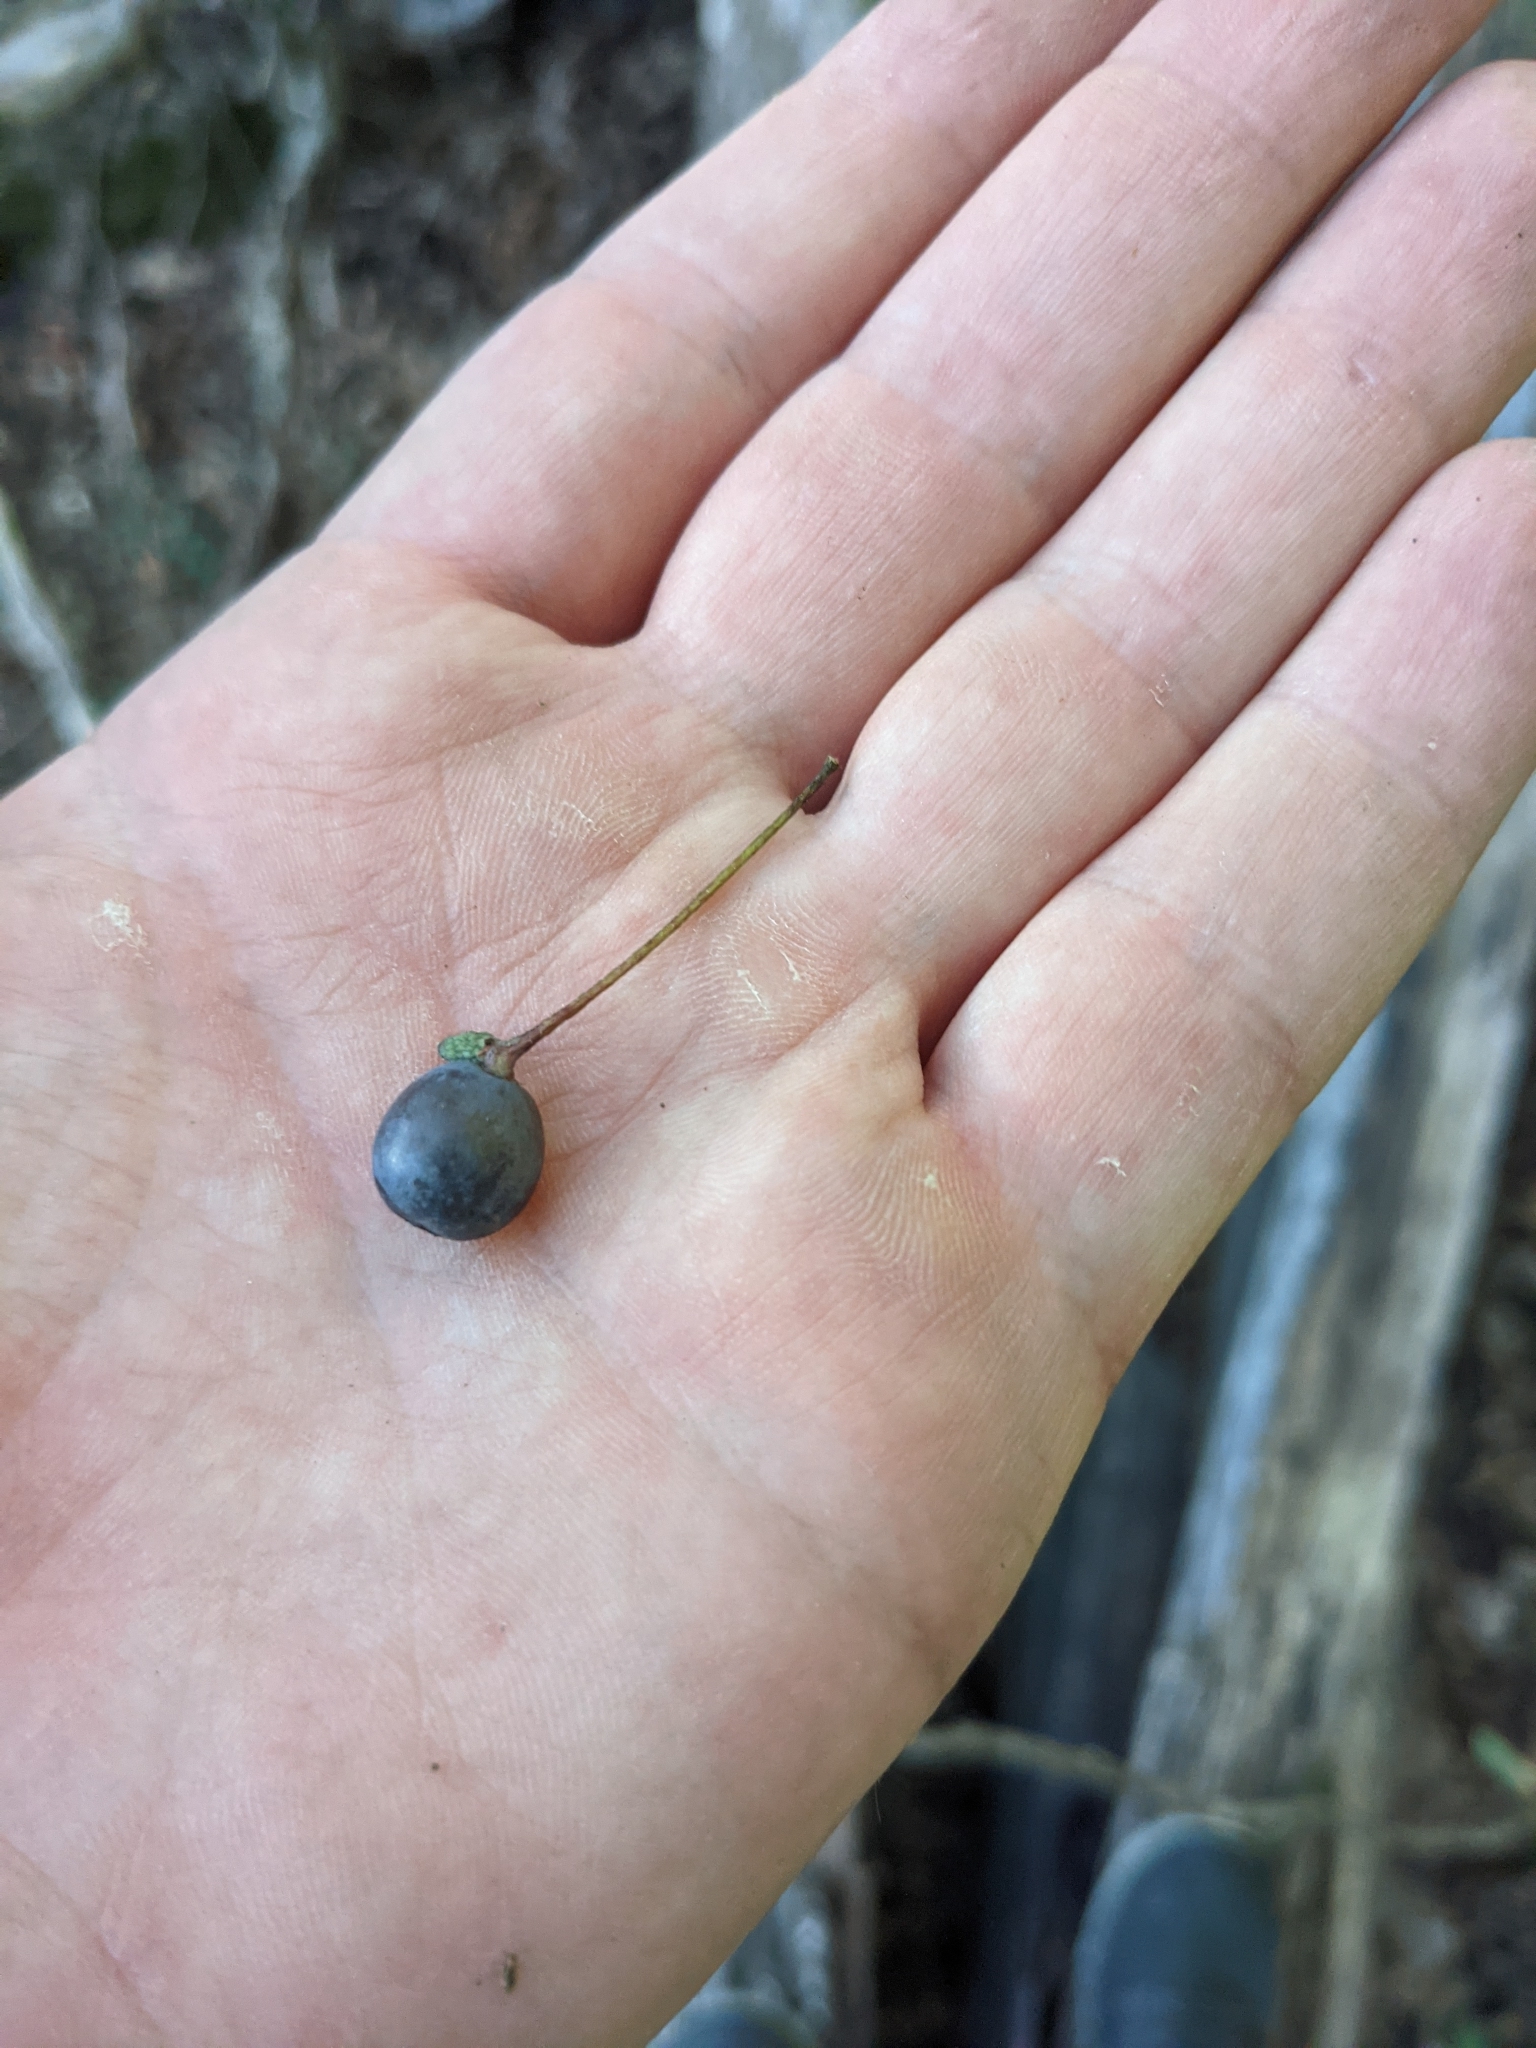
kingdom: Plantae
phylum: Tracheophyta
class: Magnoliopsida
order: Cornales
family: Nyssaceae
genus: Nyssa
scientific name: Nyssa sylvatica
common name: Black tupelo
